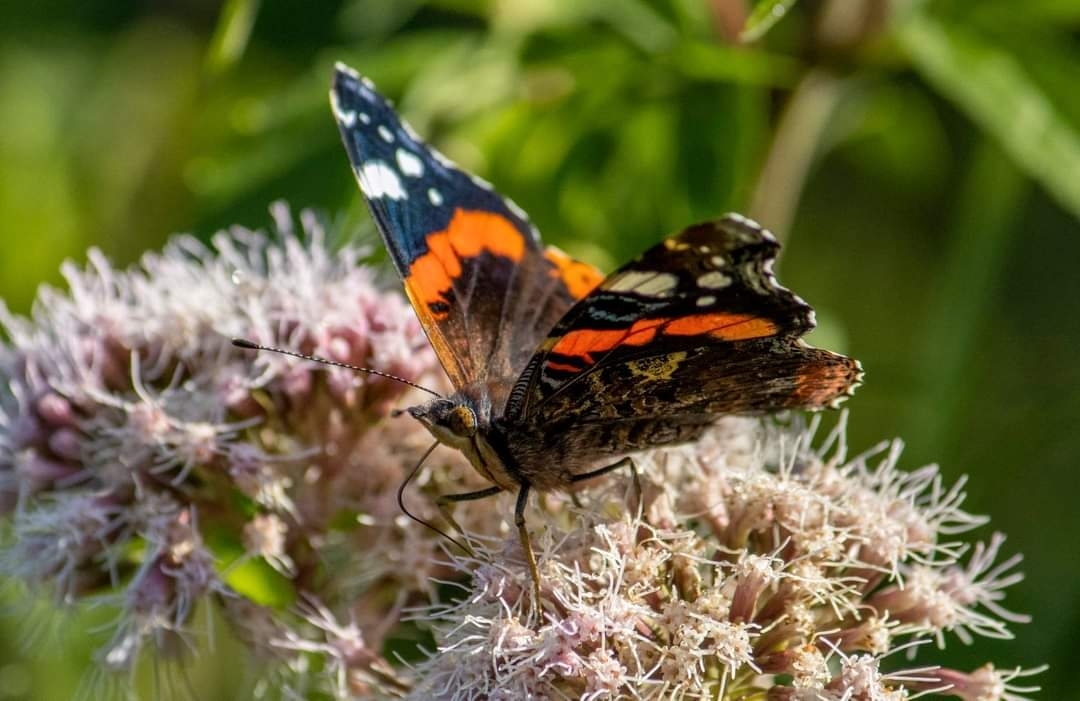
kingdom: Animalia
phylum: Arthropoda
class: Insecta
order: Lepidoptera
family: Nymphalidae
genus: Vanessa
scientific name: Vanessa atalanta
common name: Red admiral
